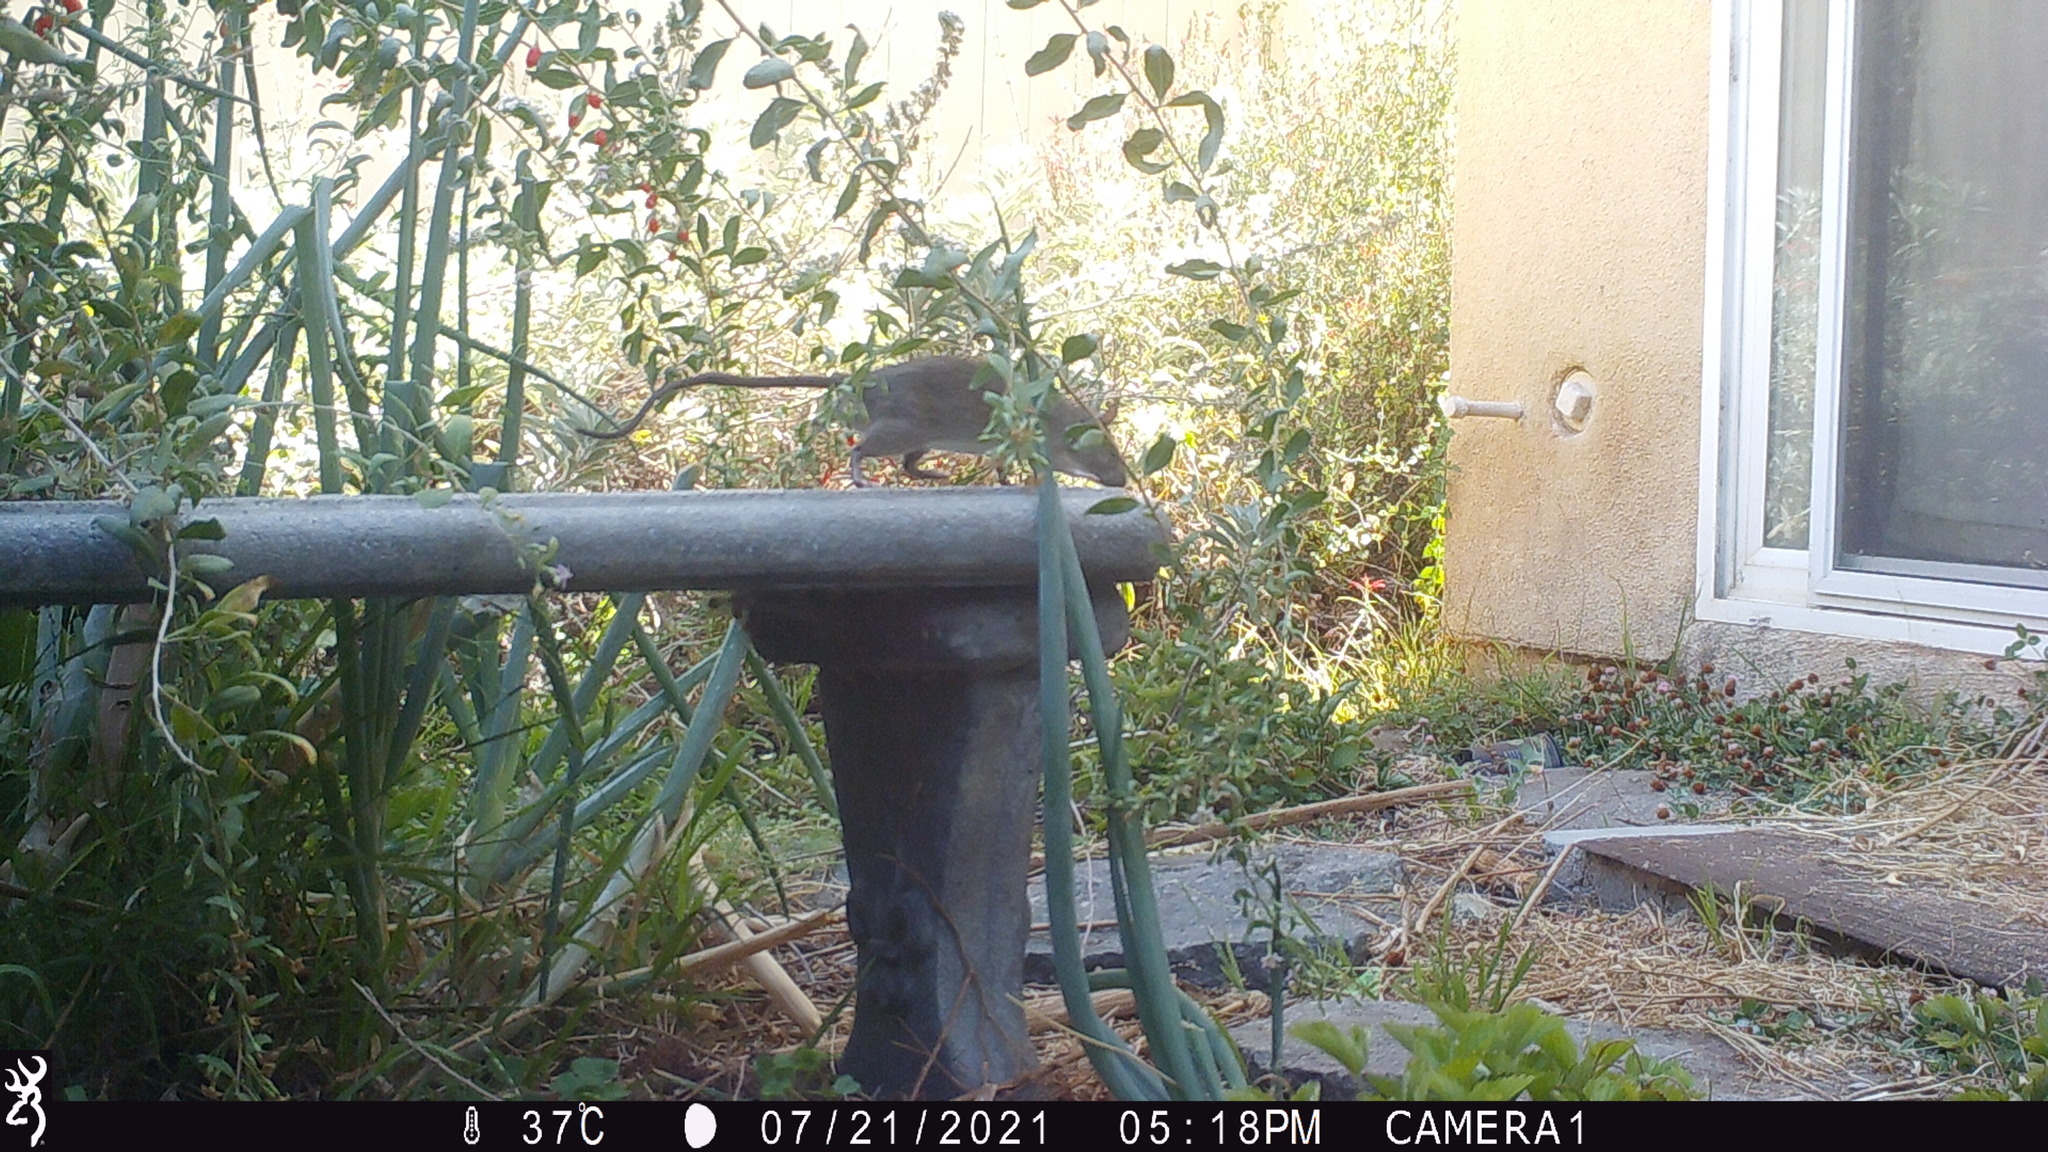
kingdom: Animalia
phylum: Chordata
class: Mammalia
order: Rodentia
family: Muridae
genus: Rattus
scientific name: Rattus rattus
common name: Black rat
